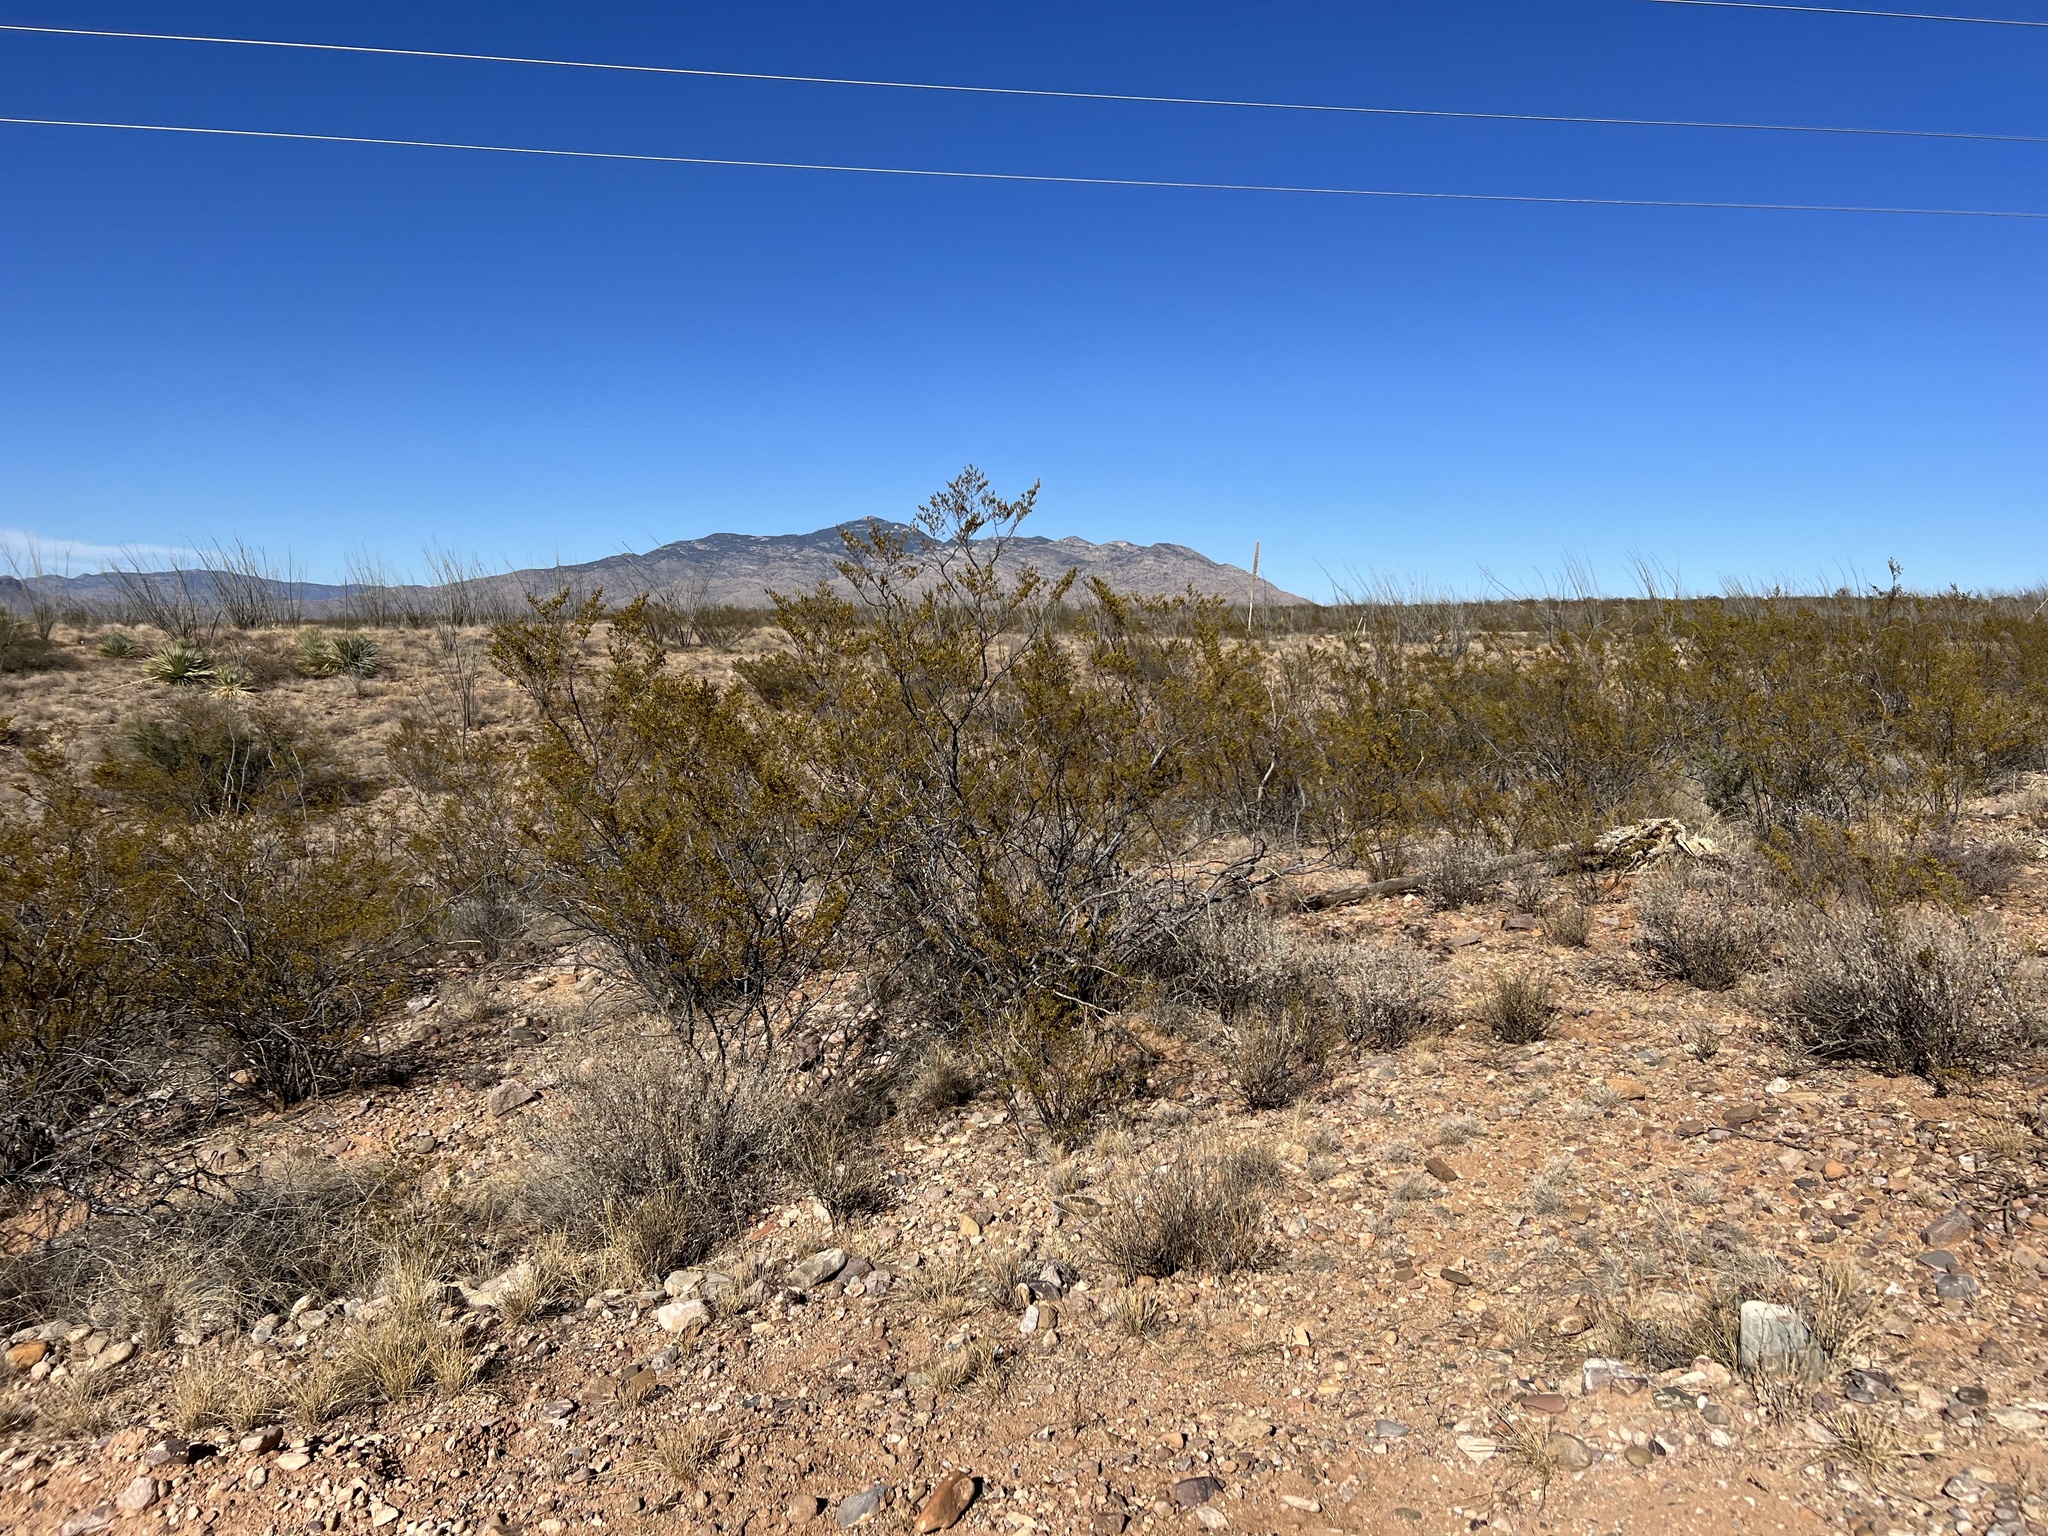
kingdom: Plantae
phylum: Tracheophyta
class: Magnoliopsida
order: Zygophyllales
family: Zygophyllaceae
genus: Larrea
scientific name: Larrea tridentata
